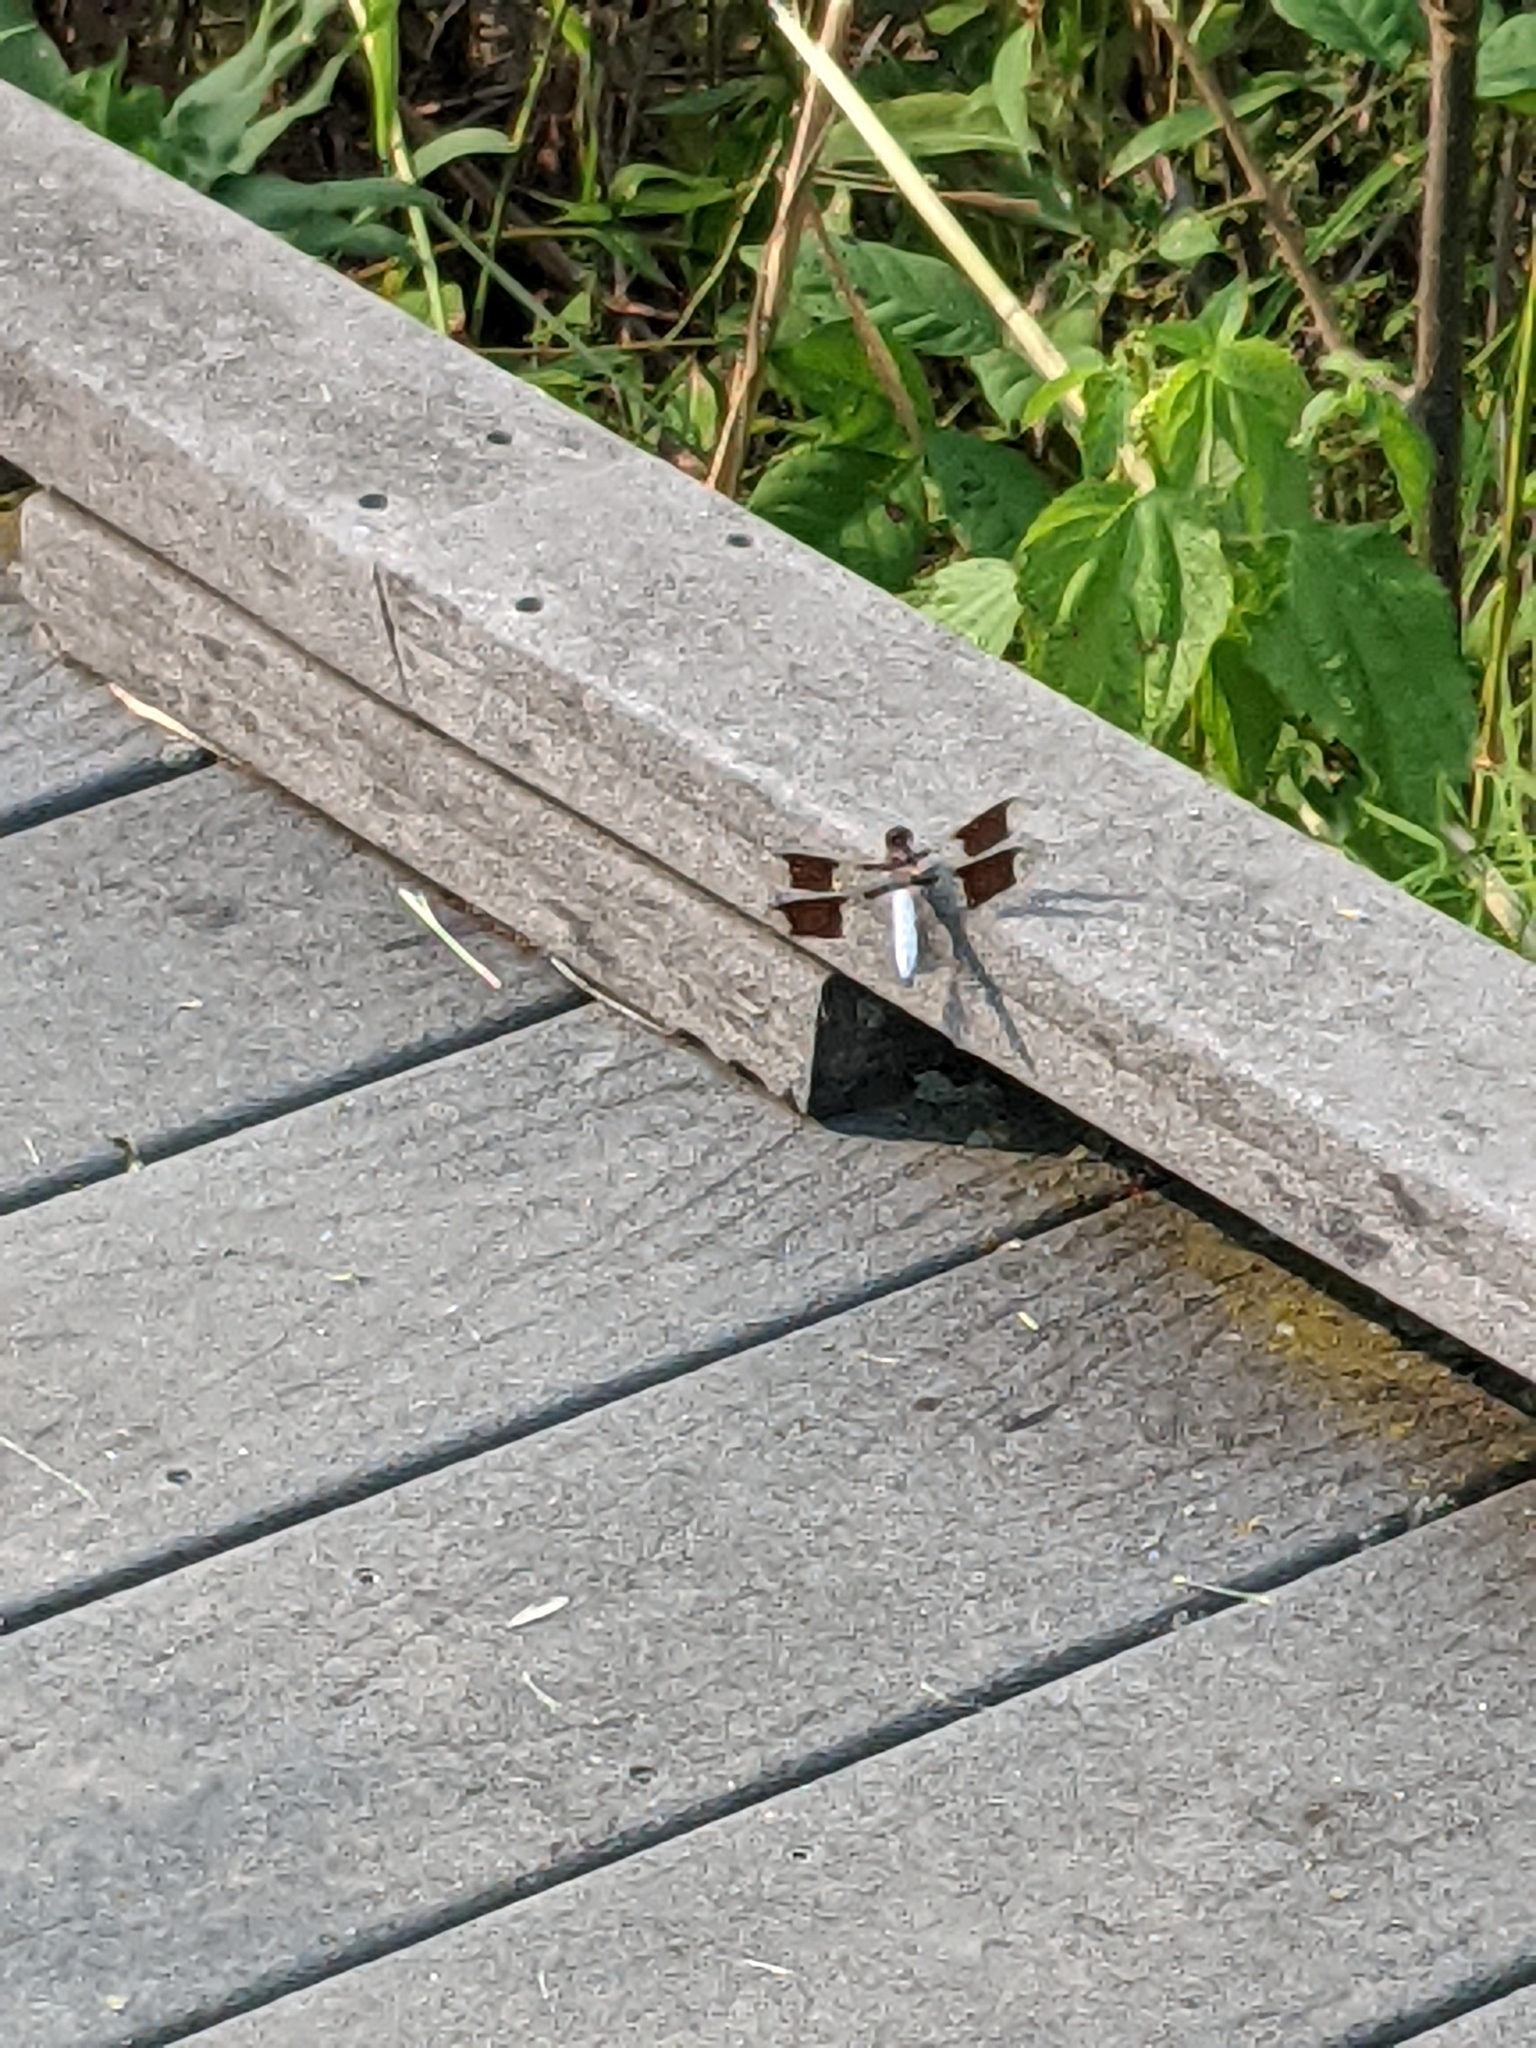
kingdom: Animalia
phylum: Arthropoda
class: Insecta
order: Odonata
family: Libellulidae
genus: Plathemis
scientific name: Plathemis lydia
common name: Common whitetail
